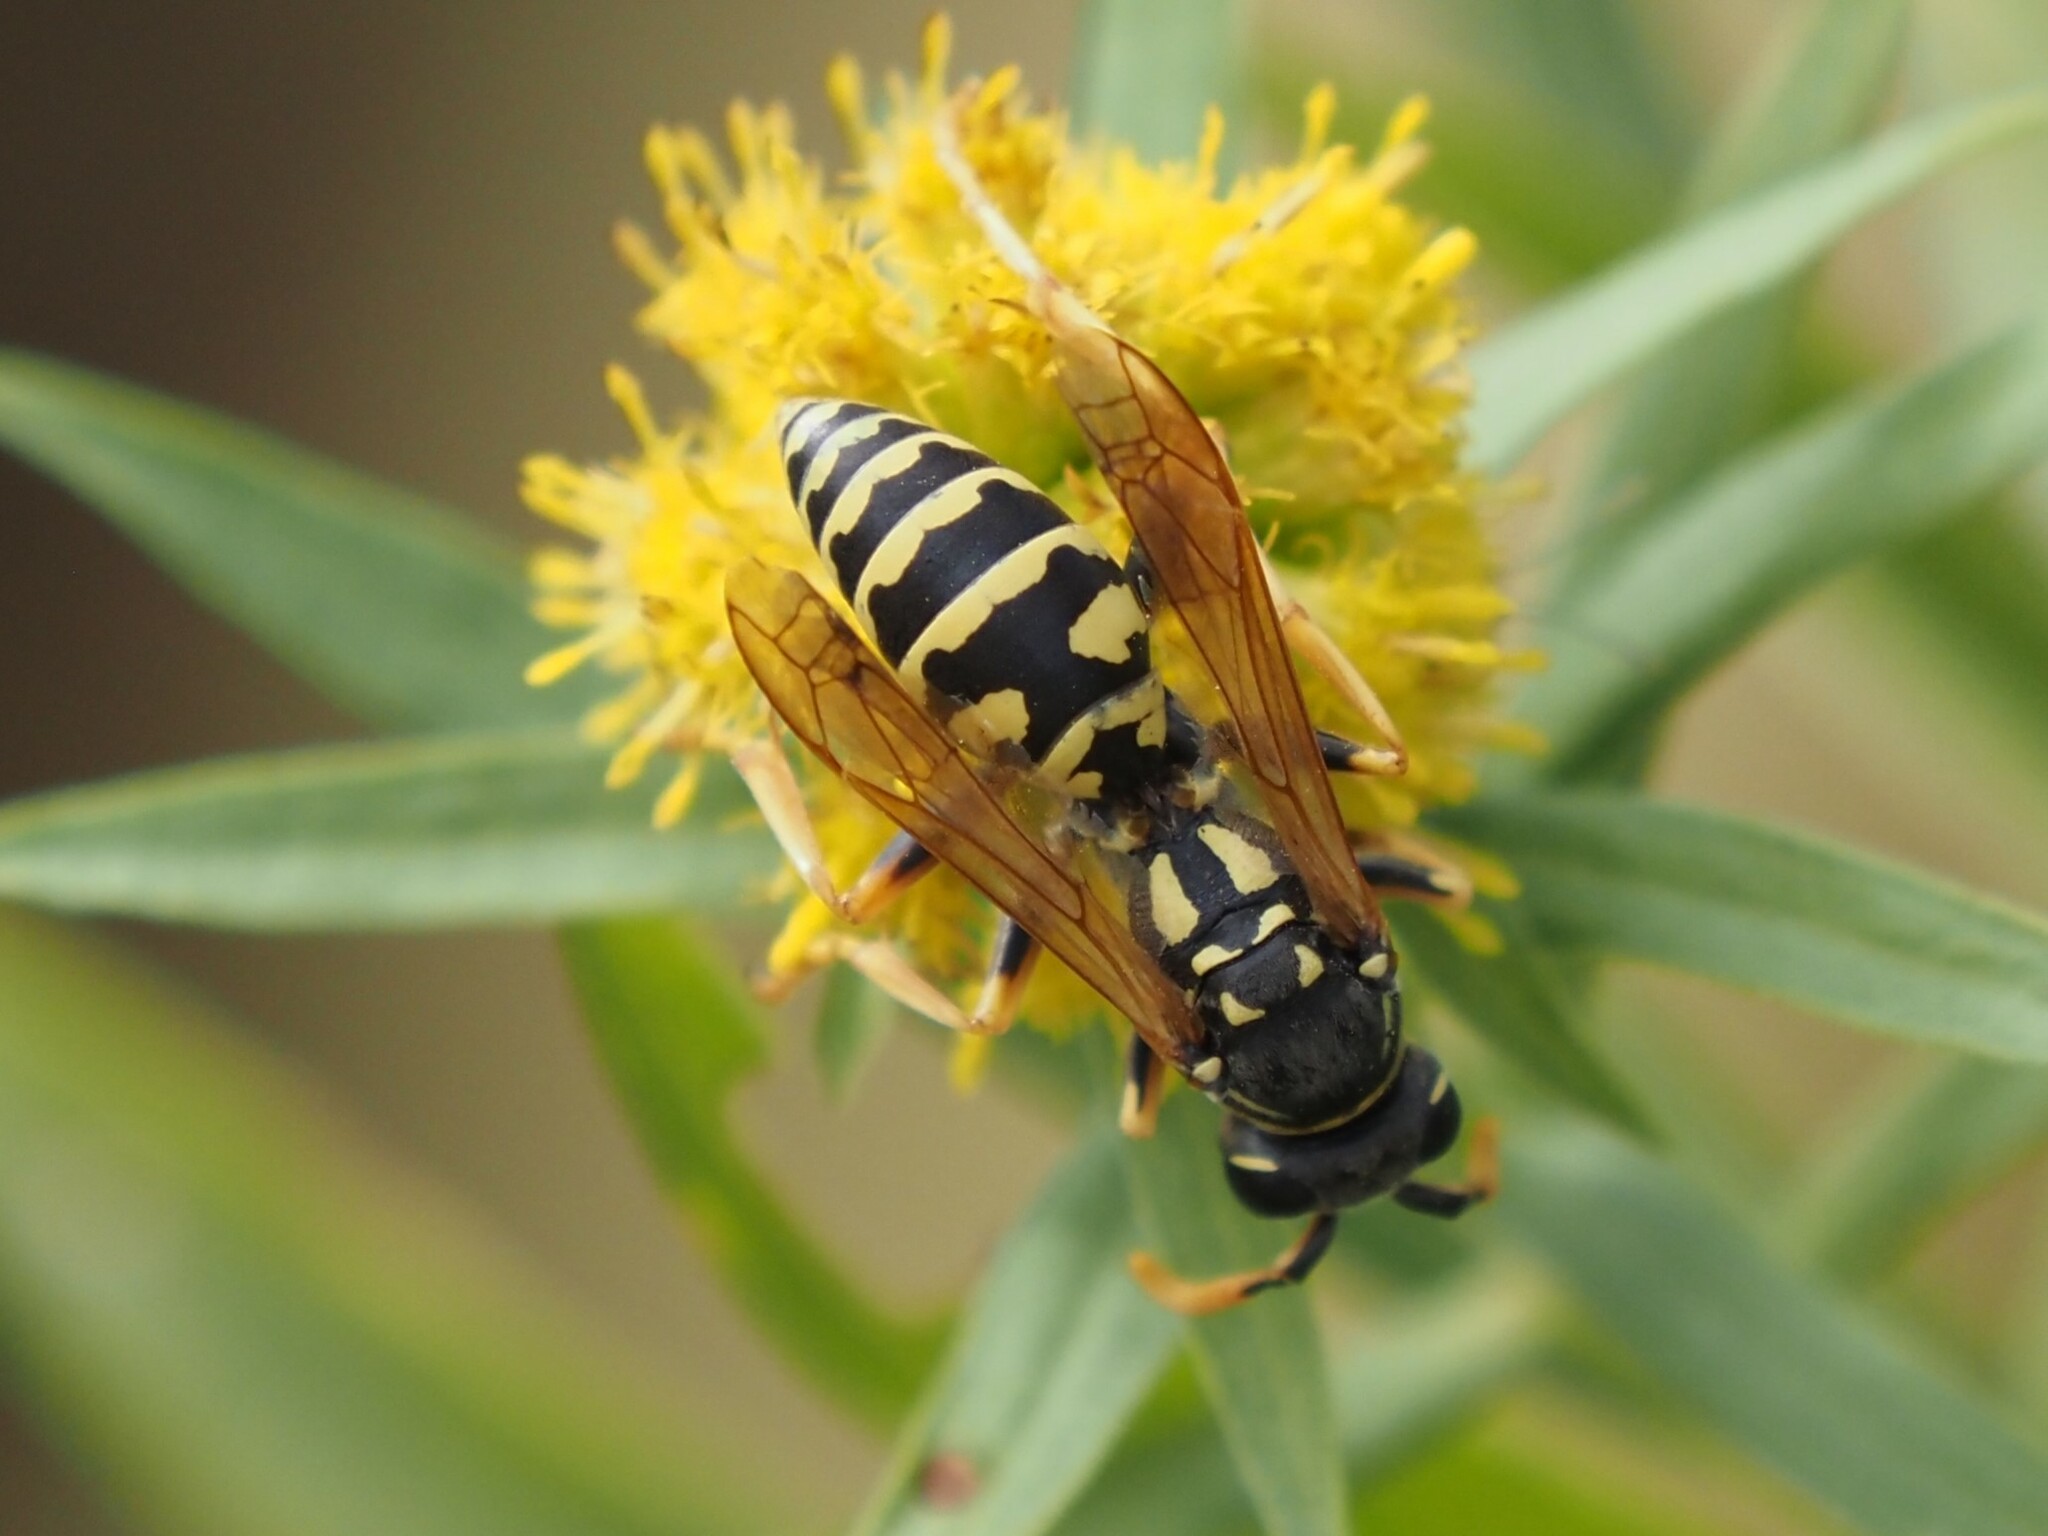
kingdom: Animalia
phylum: Arthropoda
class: Insecta
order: Hymenoptera
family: Eumenidae
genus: Polistes
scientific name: Polistes dominula
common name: Paper wasp
